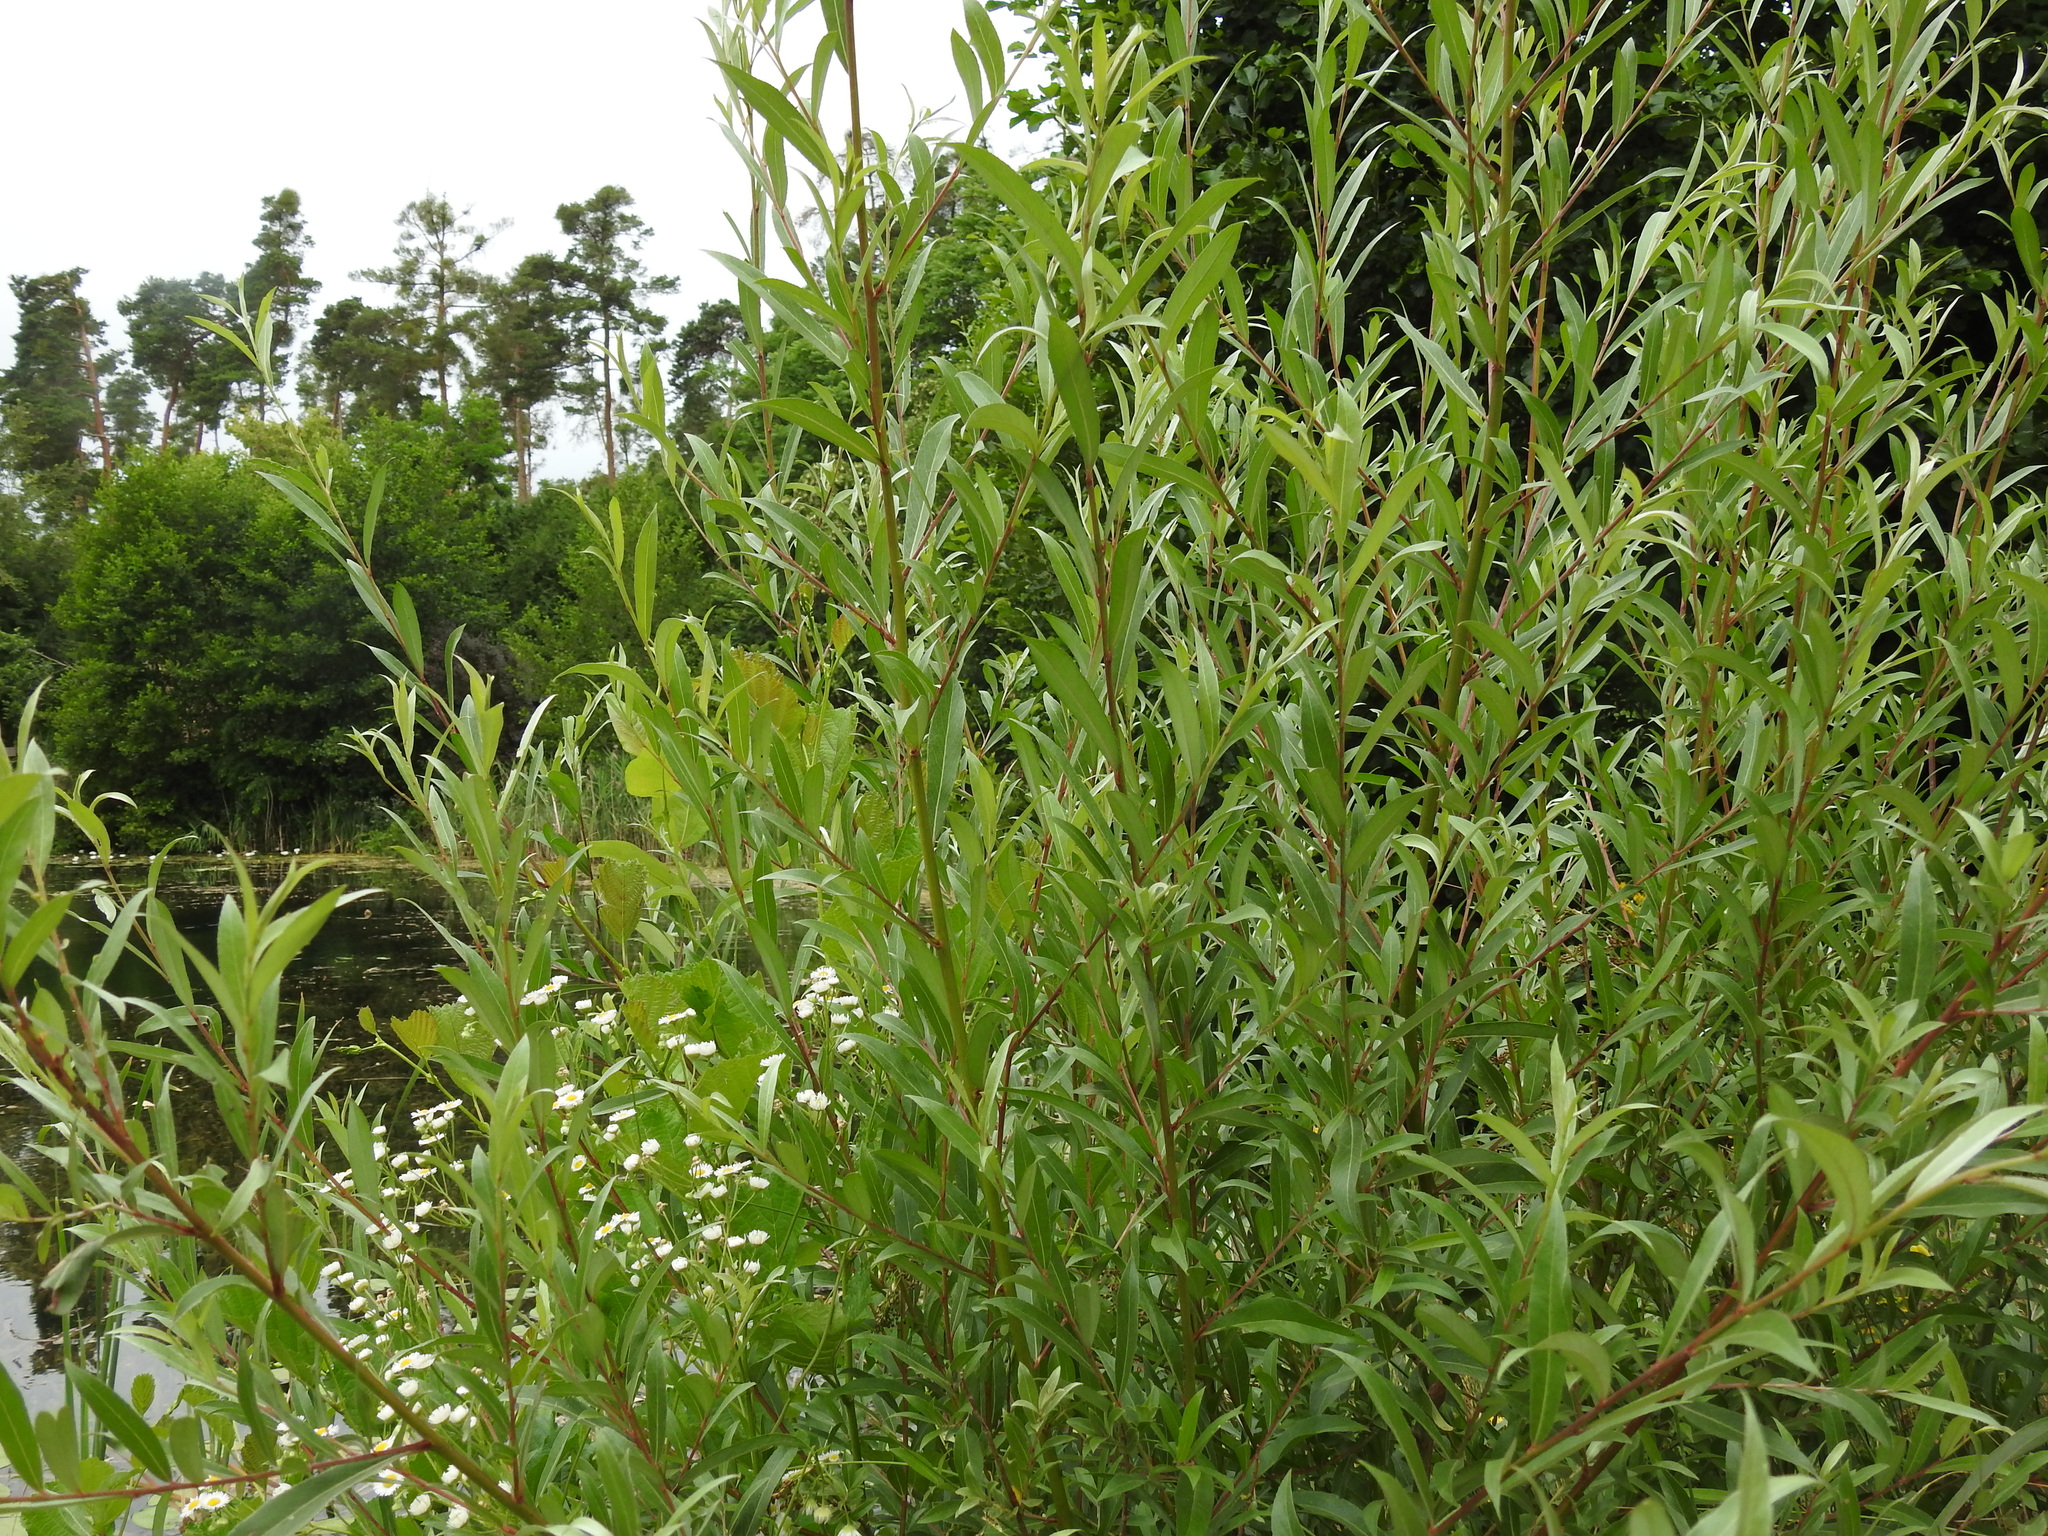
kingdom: Plantae
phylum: Tracheophyta
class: Magnoliopsida
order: Malpighiales
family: Salicaceae
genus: Salix
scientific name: Salix alba
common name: White willow
